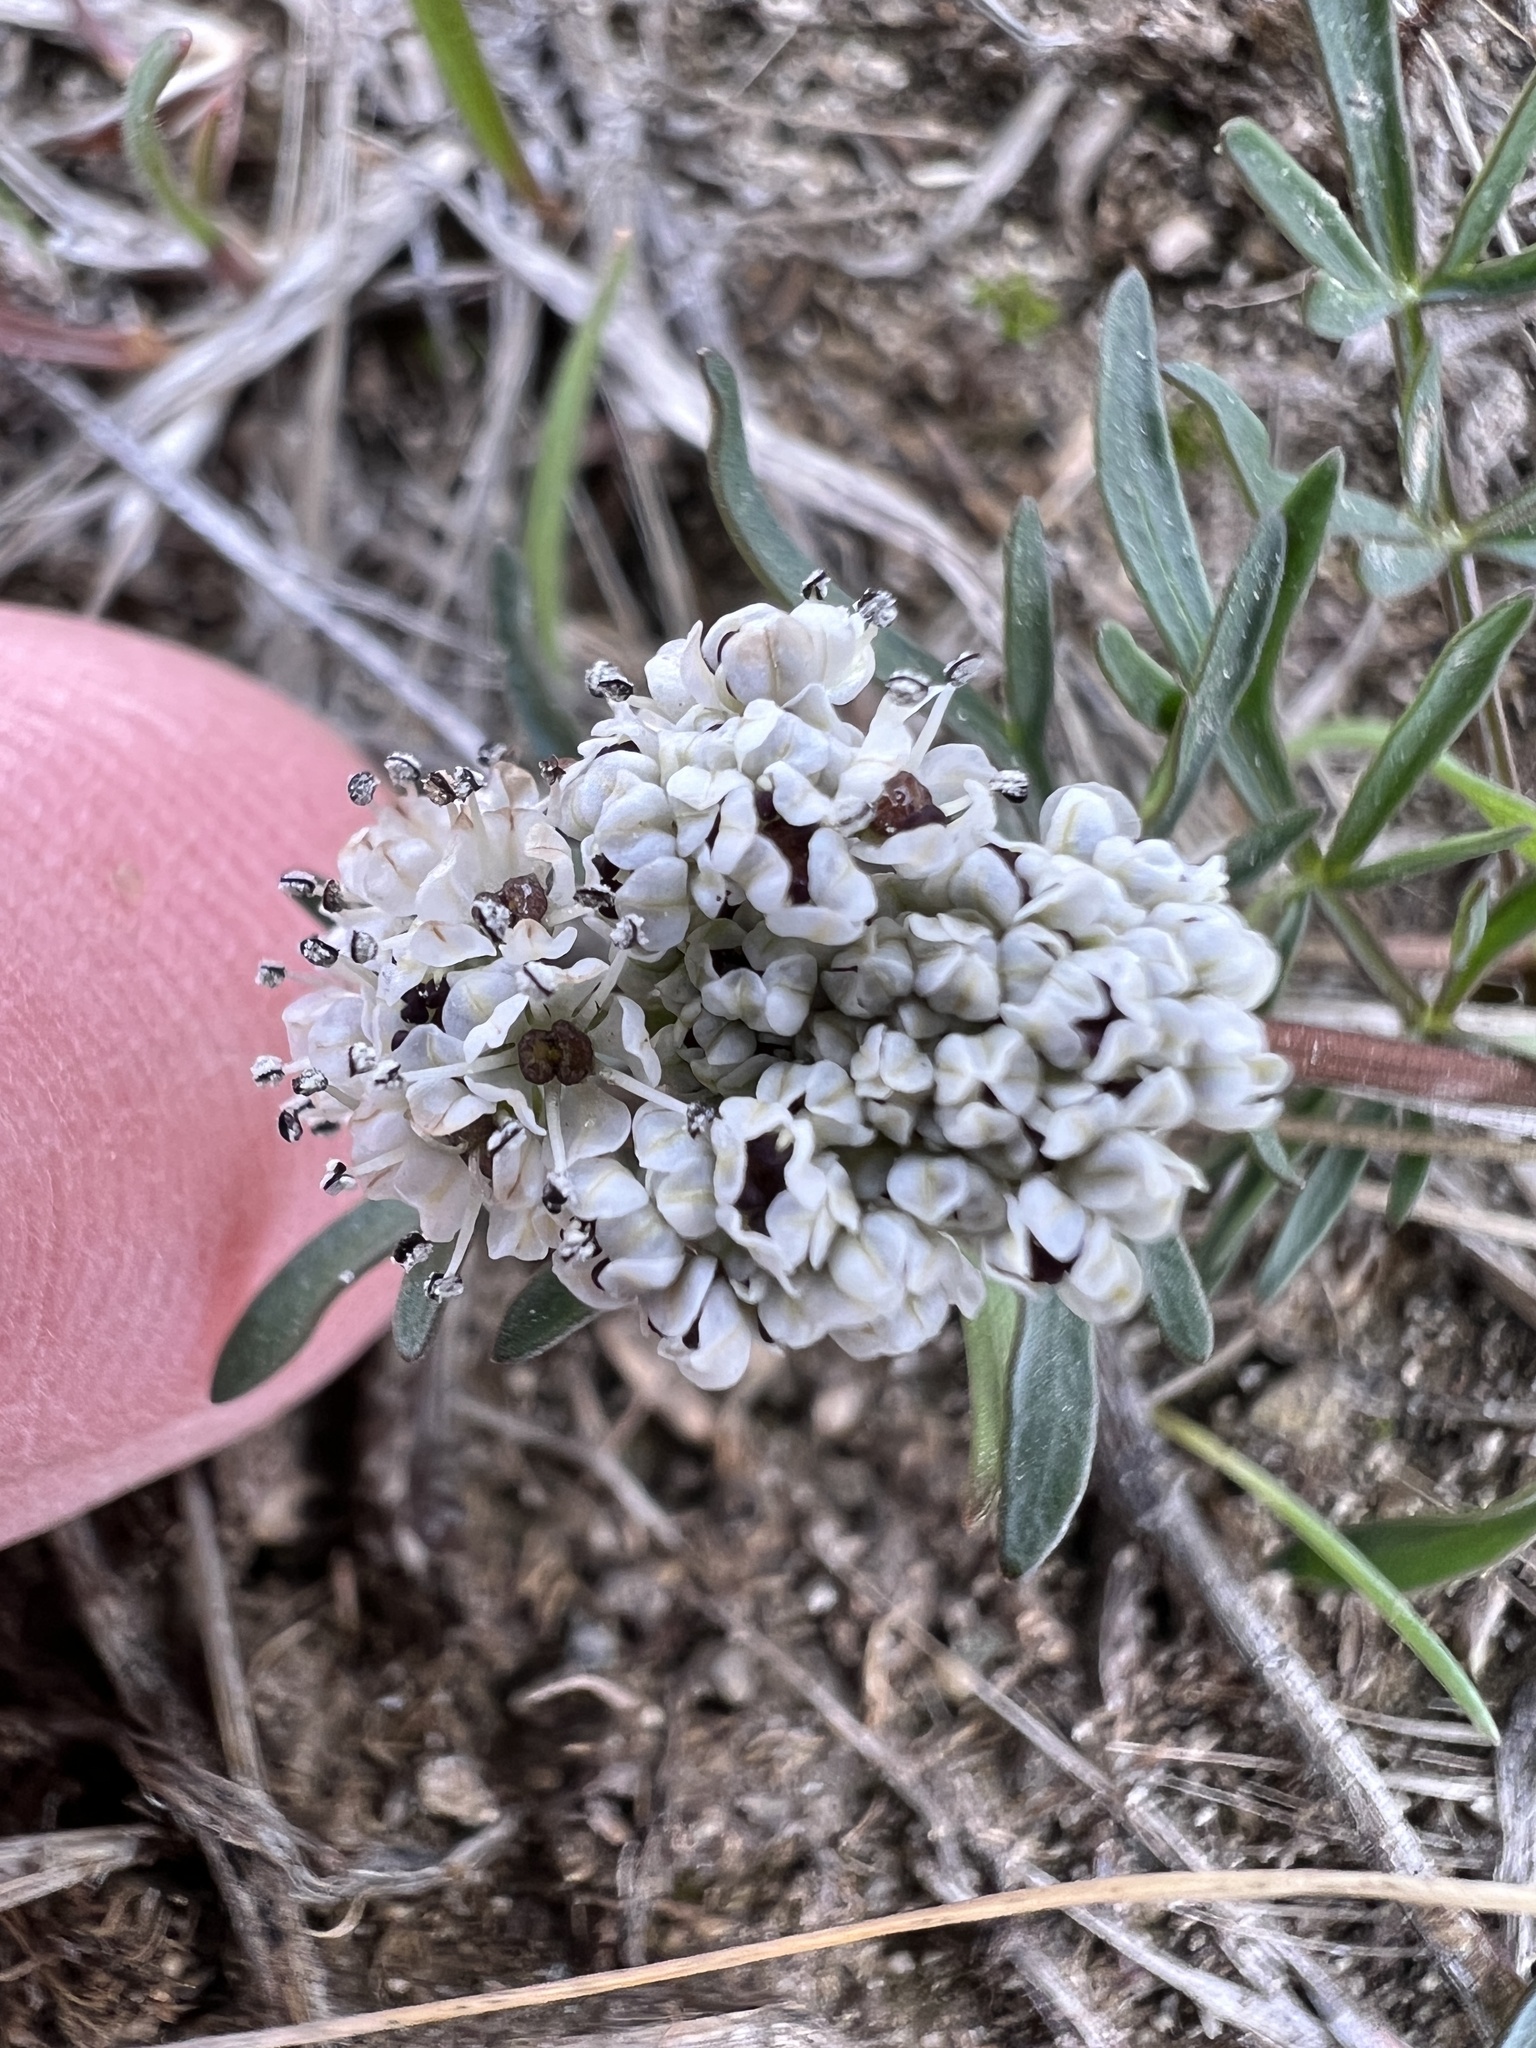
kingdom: Plantae
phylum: Tracheophyta
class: Magnoliopsida
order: Apiales
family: Apiaceae
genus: Lomatium
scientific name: Lomatium geyeri
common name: Geyer's biscuitroot
